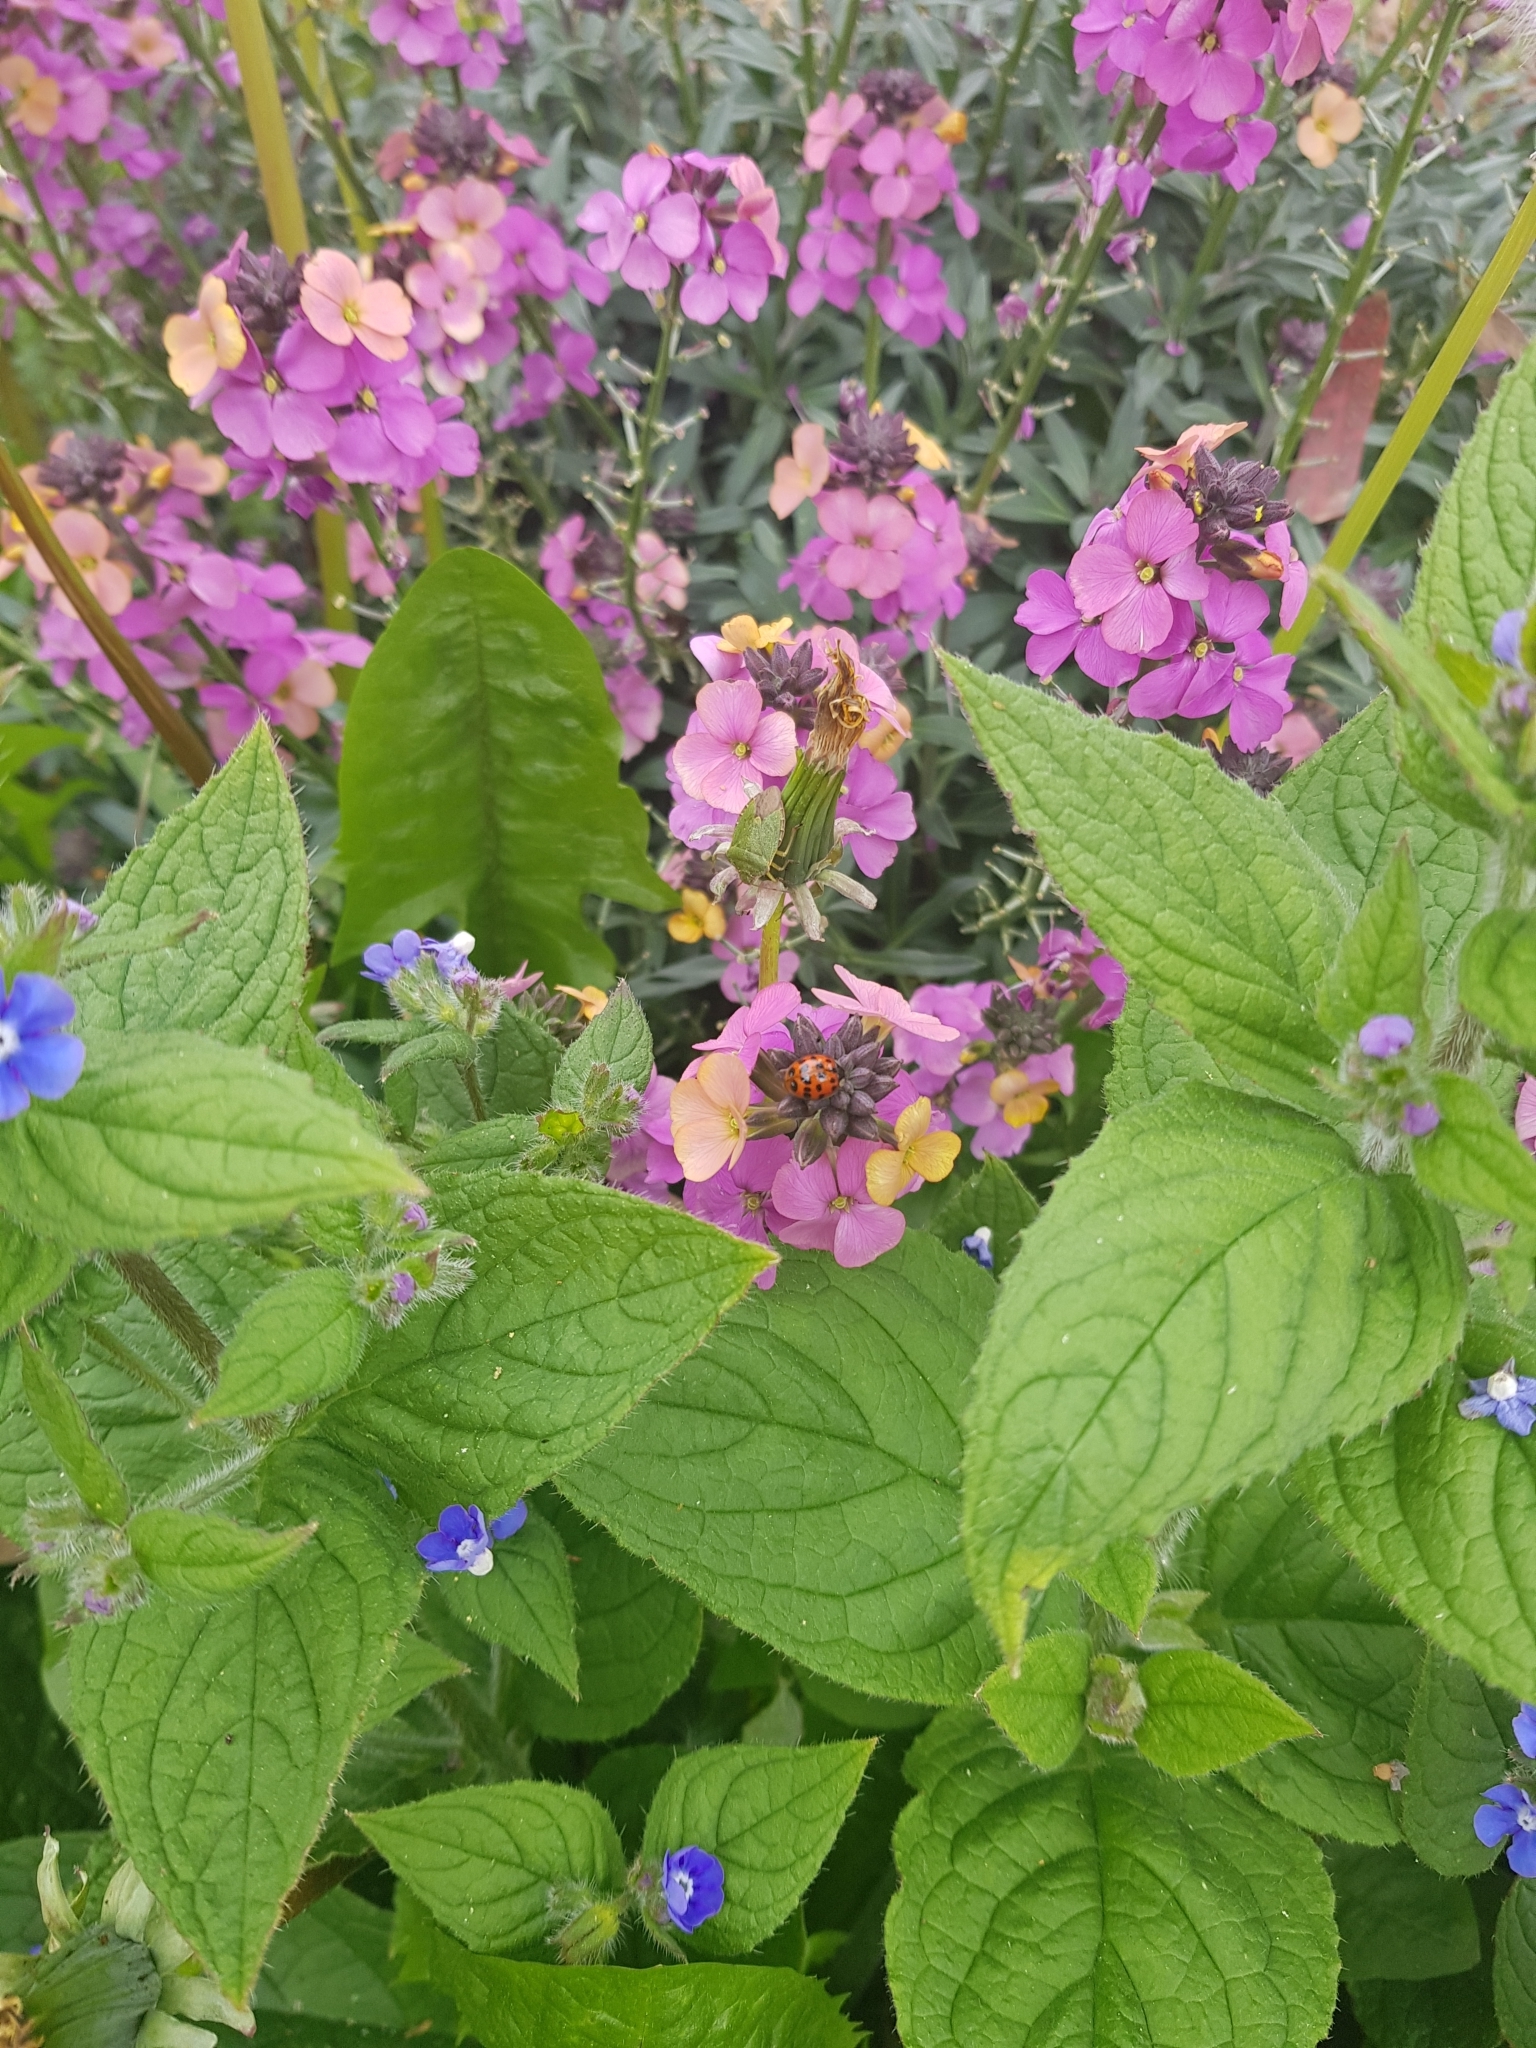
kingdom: Animalia
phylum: Arthropoda
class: Insecta
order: Coleoptera
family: Coccinellidae
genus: Harmonia
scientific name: Harmonia axyridis
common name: Harlequin ladybird
